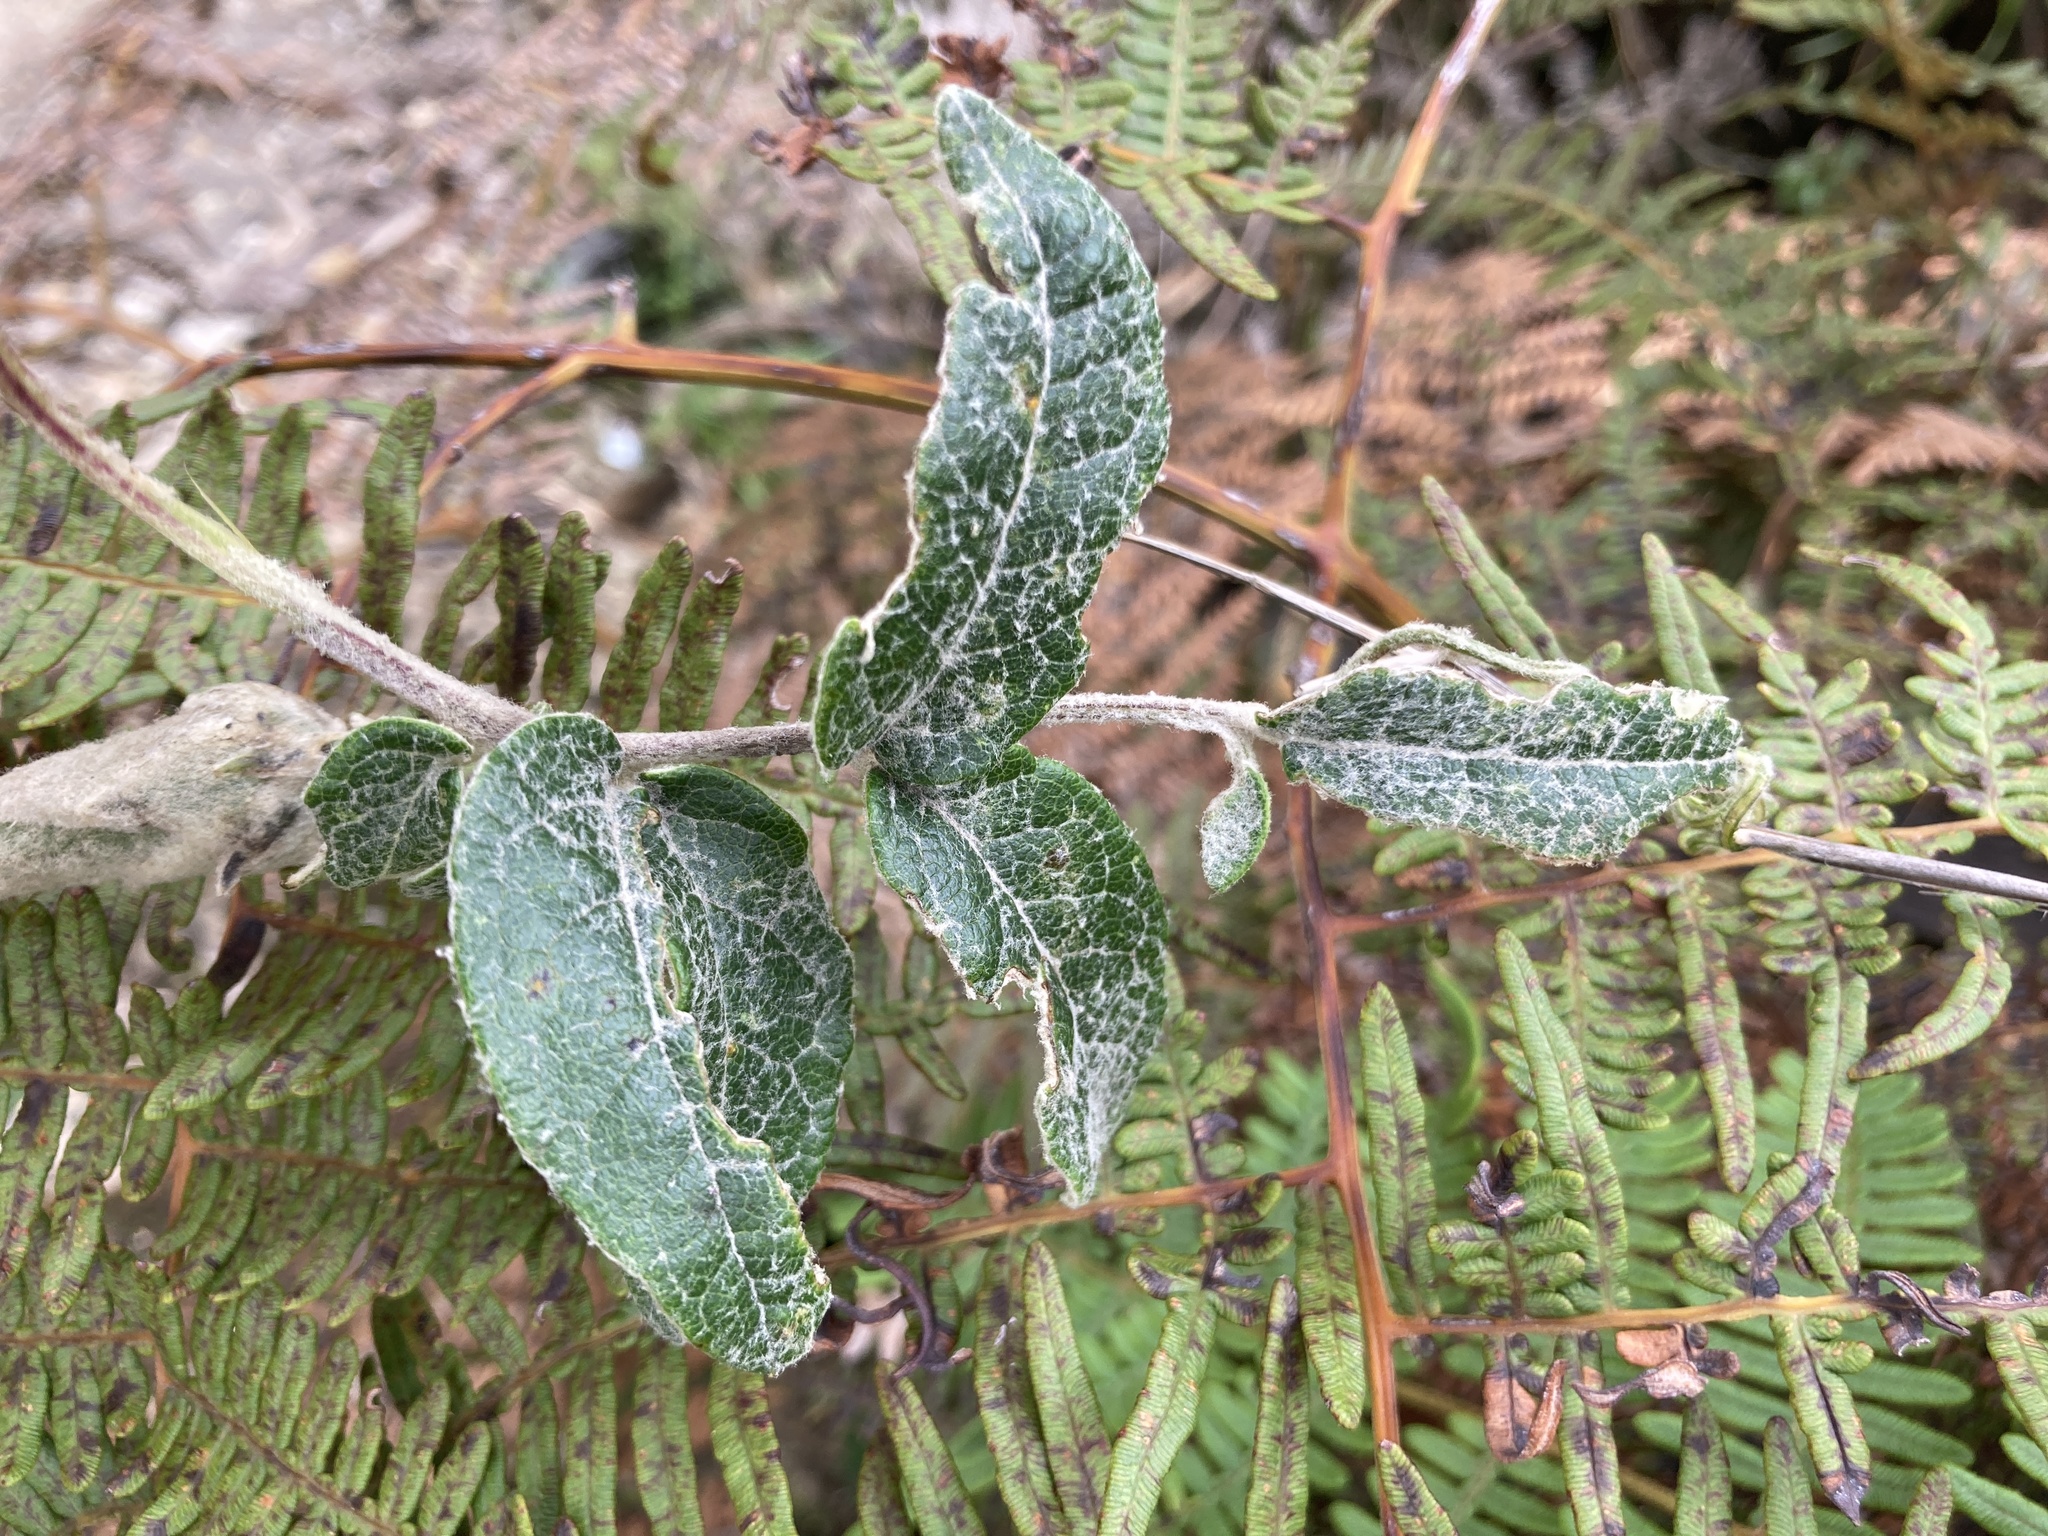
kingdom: Plantae
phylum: Tracheophyta
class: Magnoliopsida
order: Asterales
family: Asteraceae
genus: Mutisia
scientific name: Mutisia clematis
